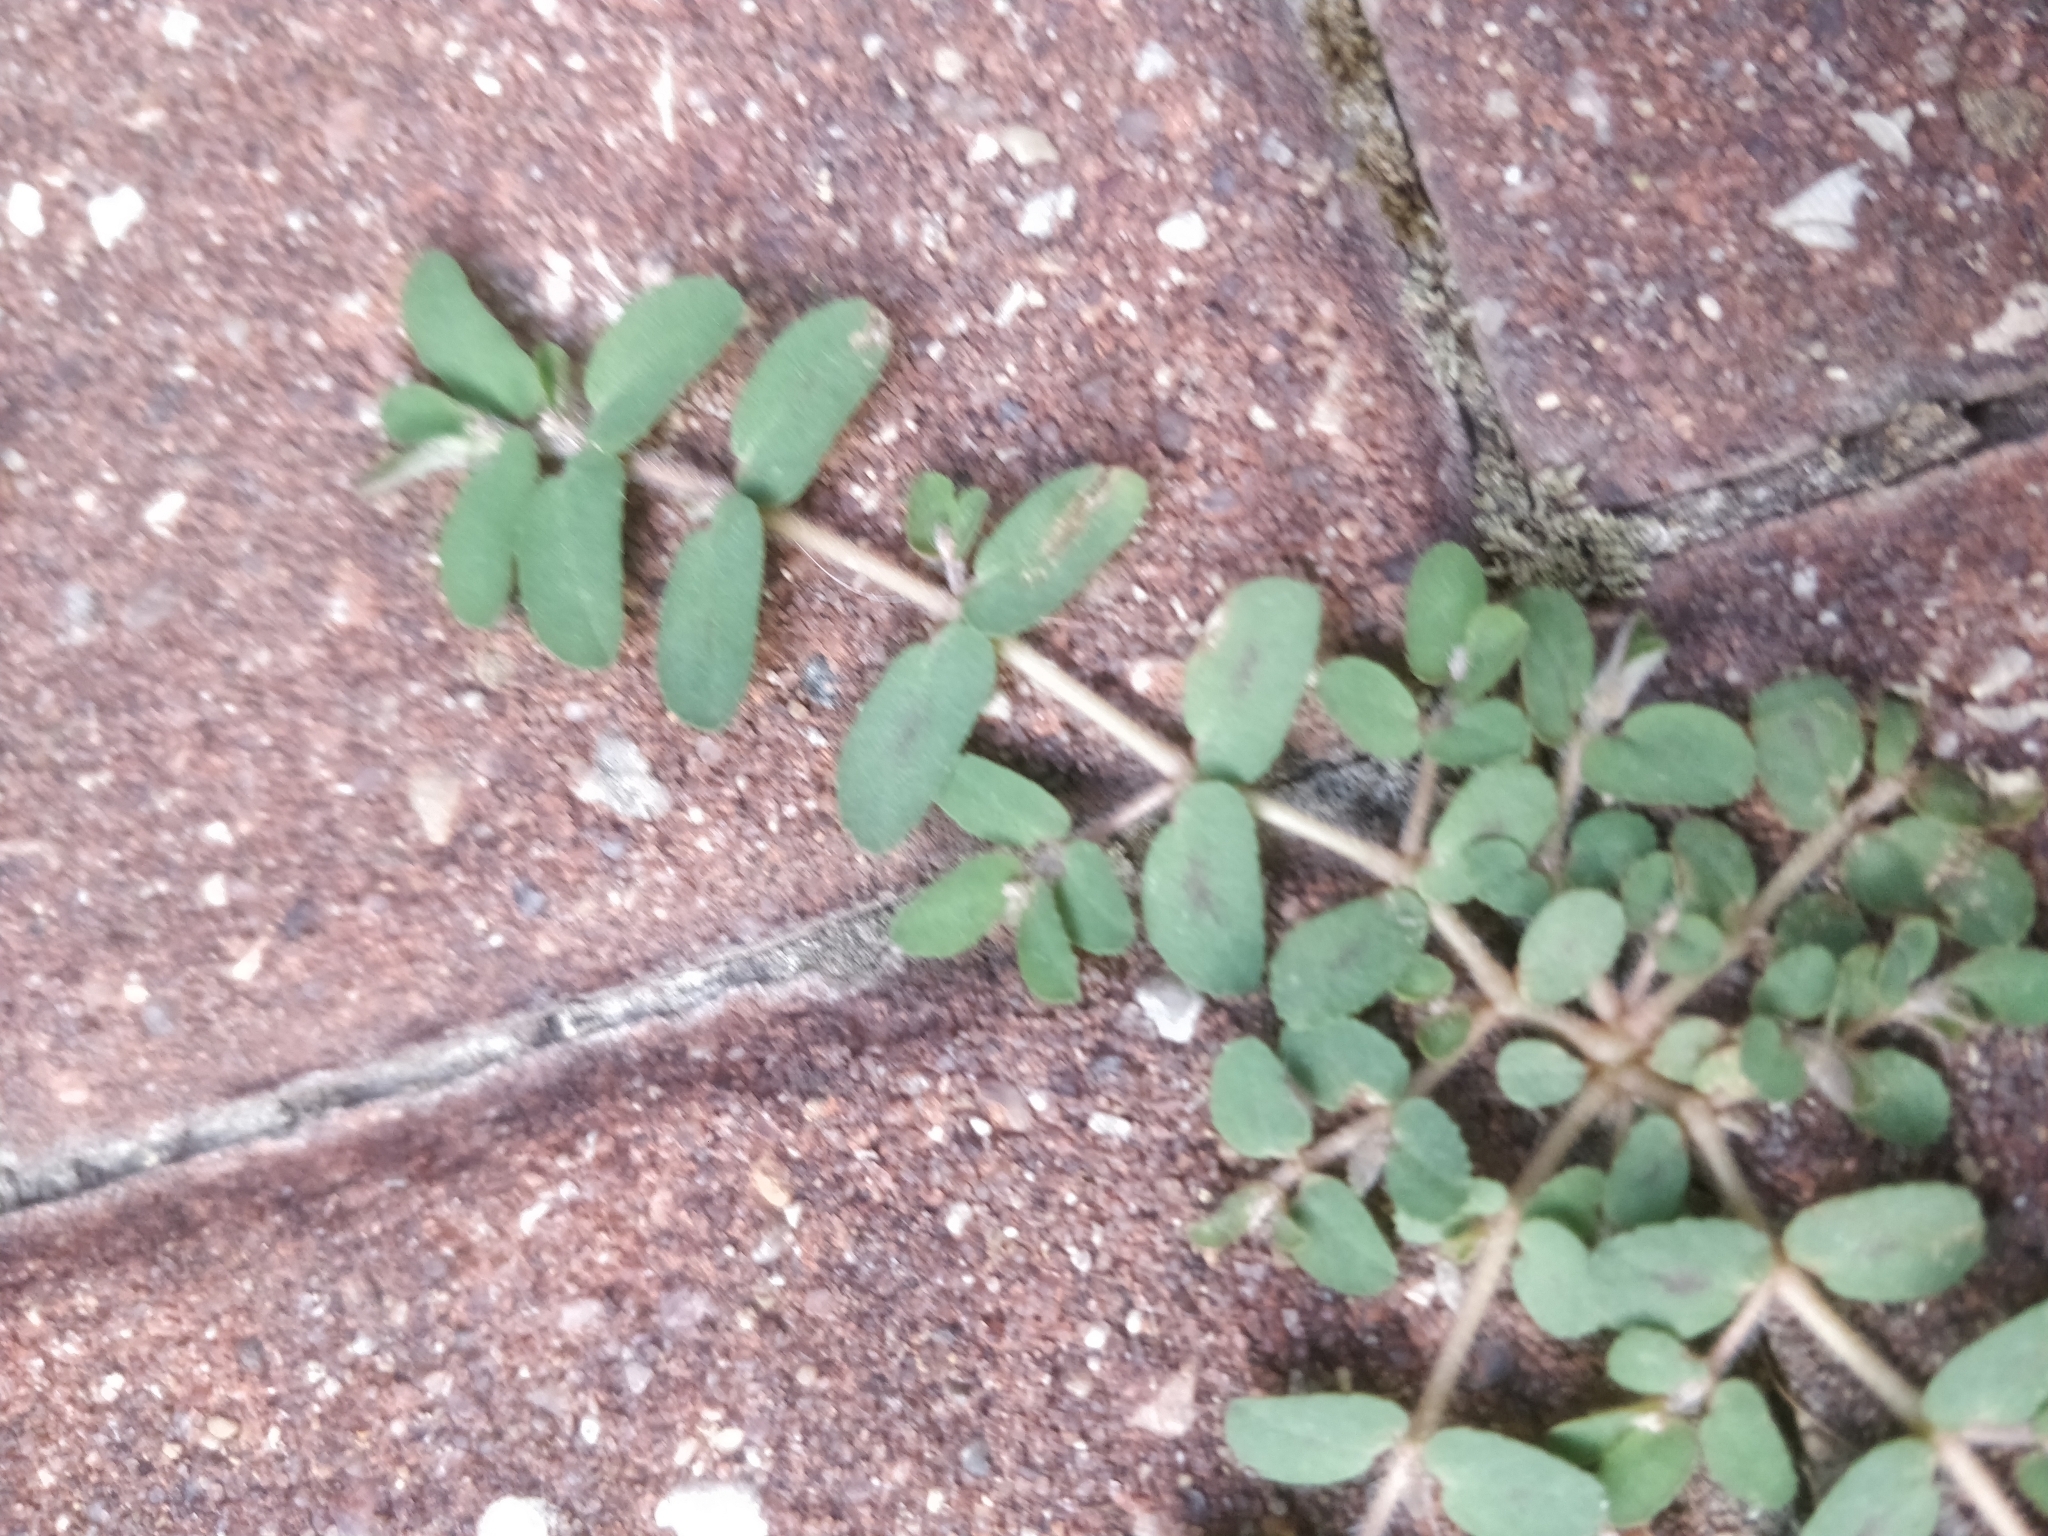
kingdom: Plantae
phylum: Tracheophyta
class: Magnoliopsida
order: Malpighiales
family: Euphorbiaceae
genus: Euphorbia
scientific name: Euphorbia maculata
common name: Spotted spurge
